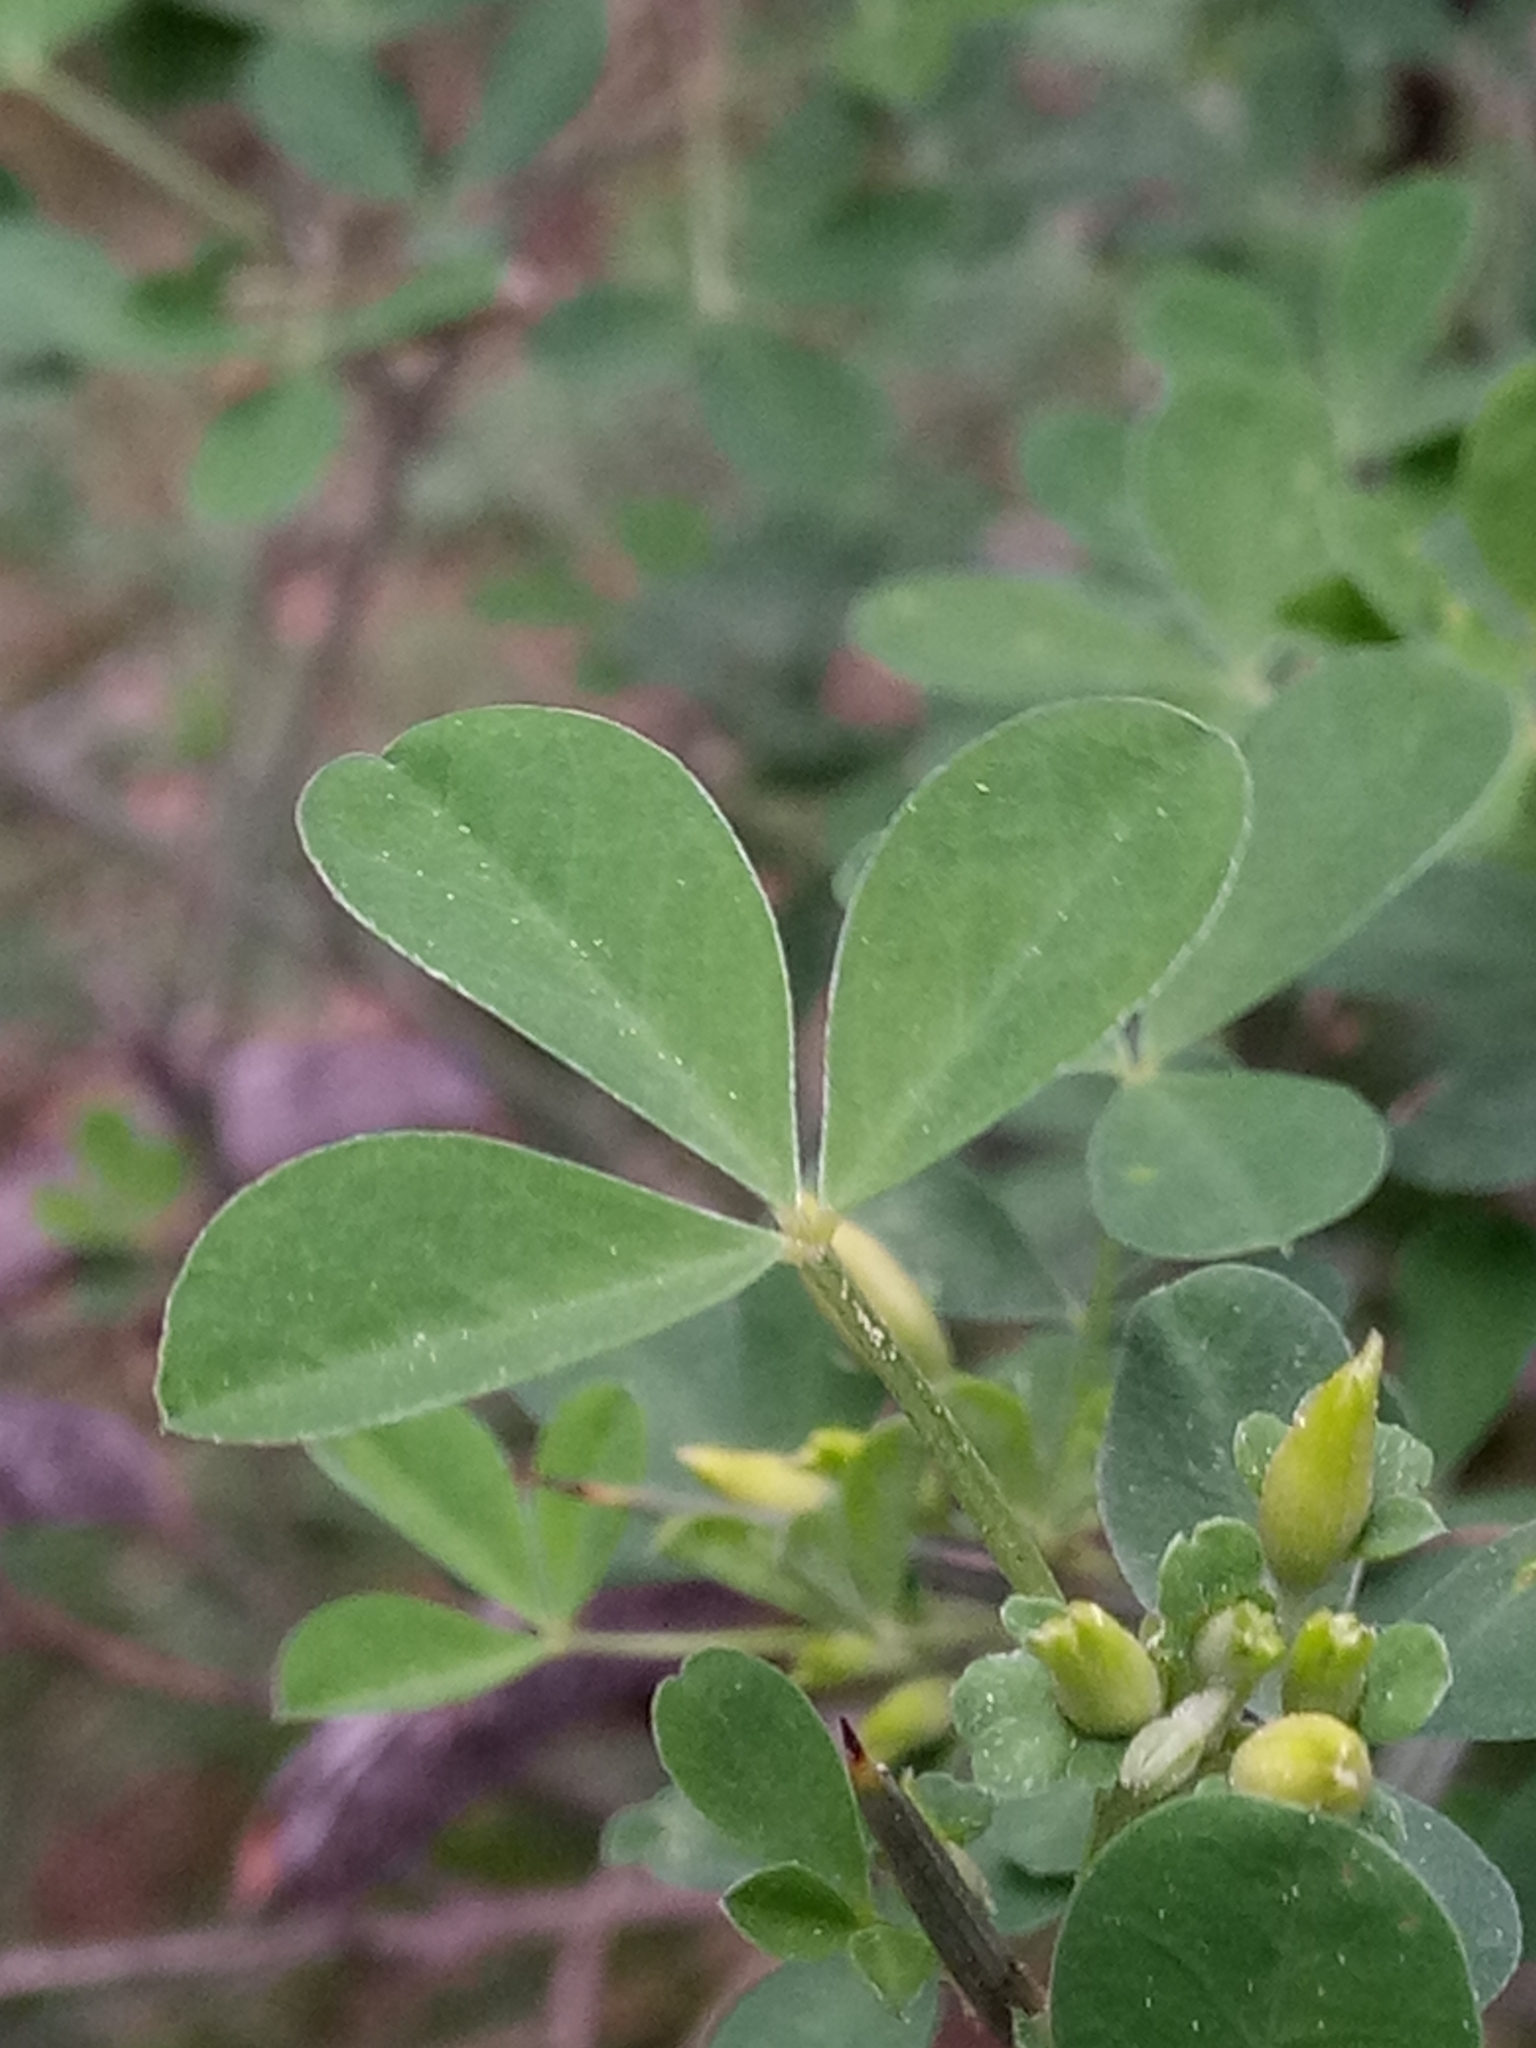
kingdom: Plantae
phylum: Tracheophyta
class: Magnoliopsida
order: Fabales
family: Fabaceae
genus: Calicotome
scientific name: Calicotome spinosa
